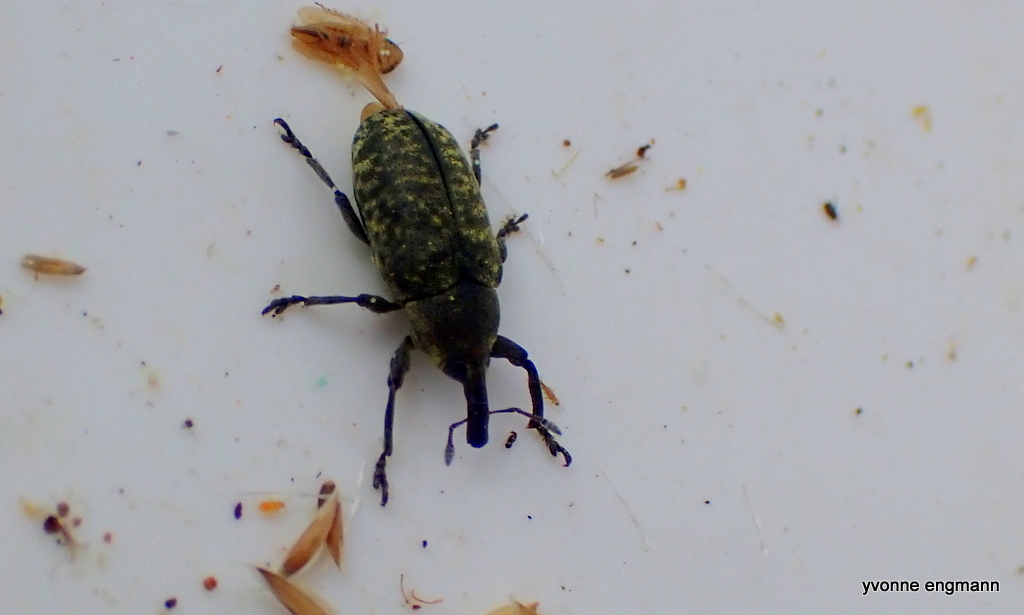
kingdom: Animalia
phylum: Arthropoda
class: Insecta
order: Coleoptera
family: Curculionidae
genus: Larinus
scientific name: Larinus carlinae
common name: Weevil
